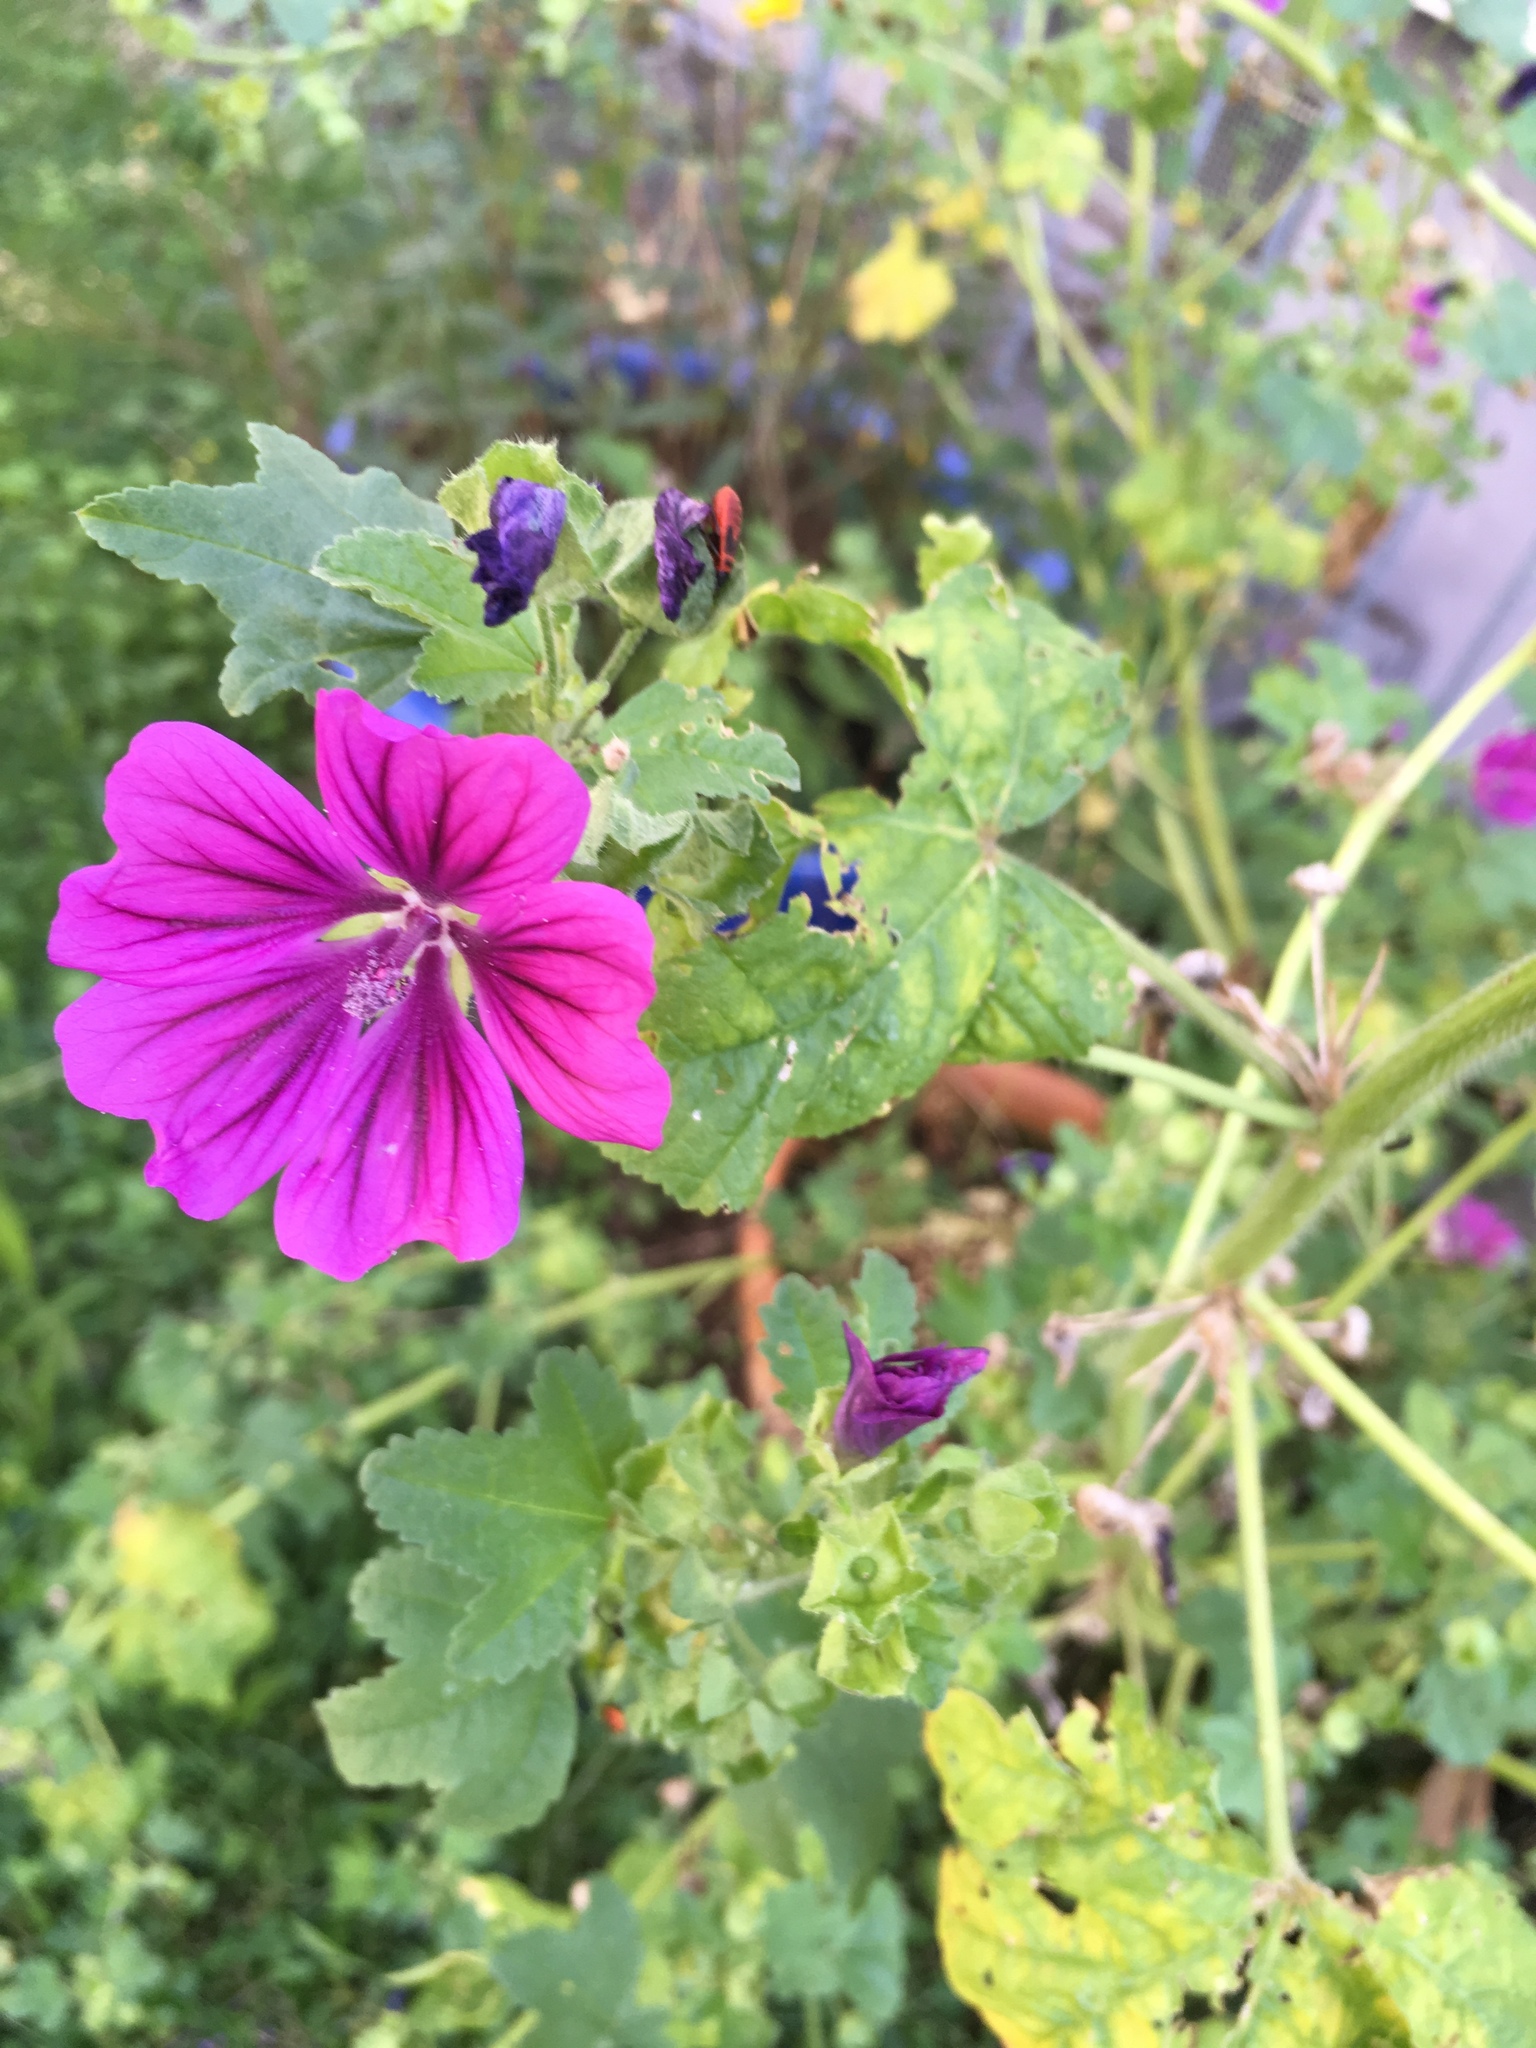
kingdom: Plantae
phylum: Tracheophyta
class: Magnoliopsida
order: Malvales
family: Malvaceae
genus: Malva
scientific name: Malva sylvestris
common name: Common mallow
